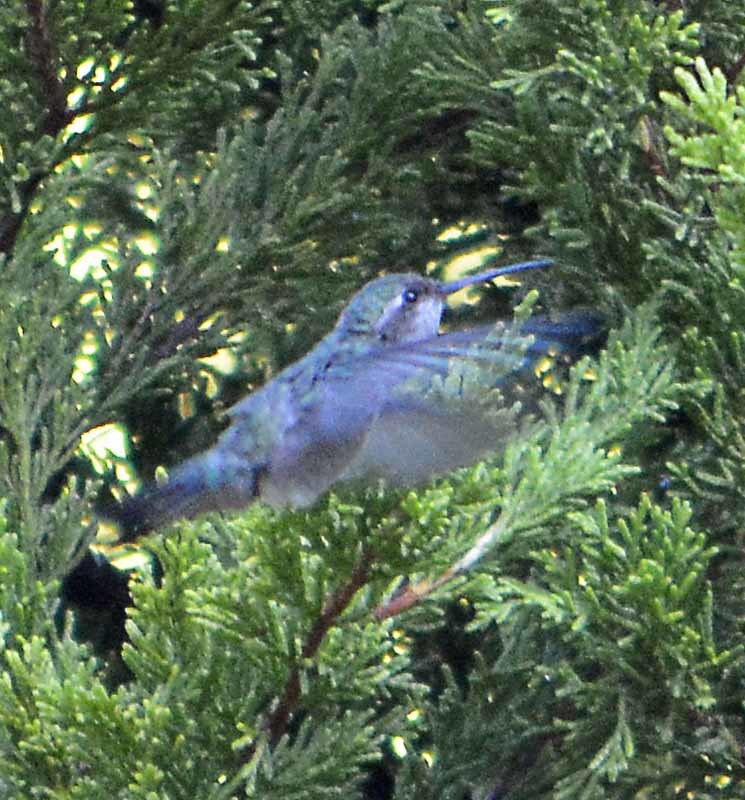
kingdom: Animalia
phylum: Chordata
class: Aves
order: Apodiformes
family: Trochilidae
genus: Cynanthus
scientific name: Cynanthus latirostris
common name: Broad-billed hummingbird
